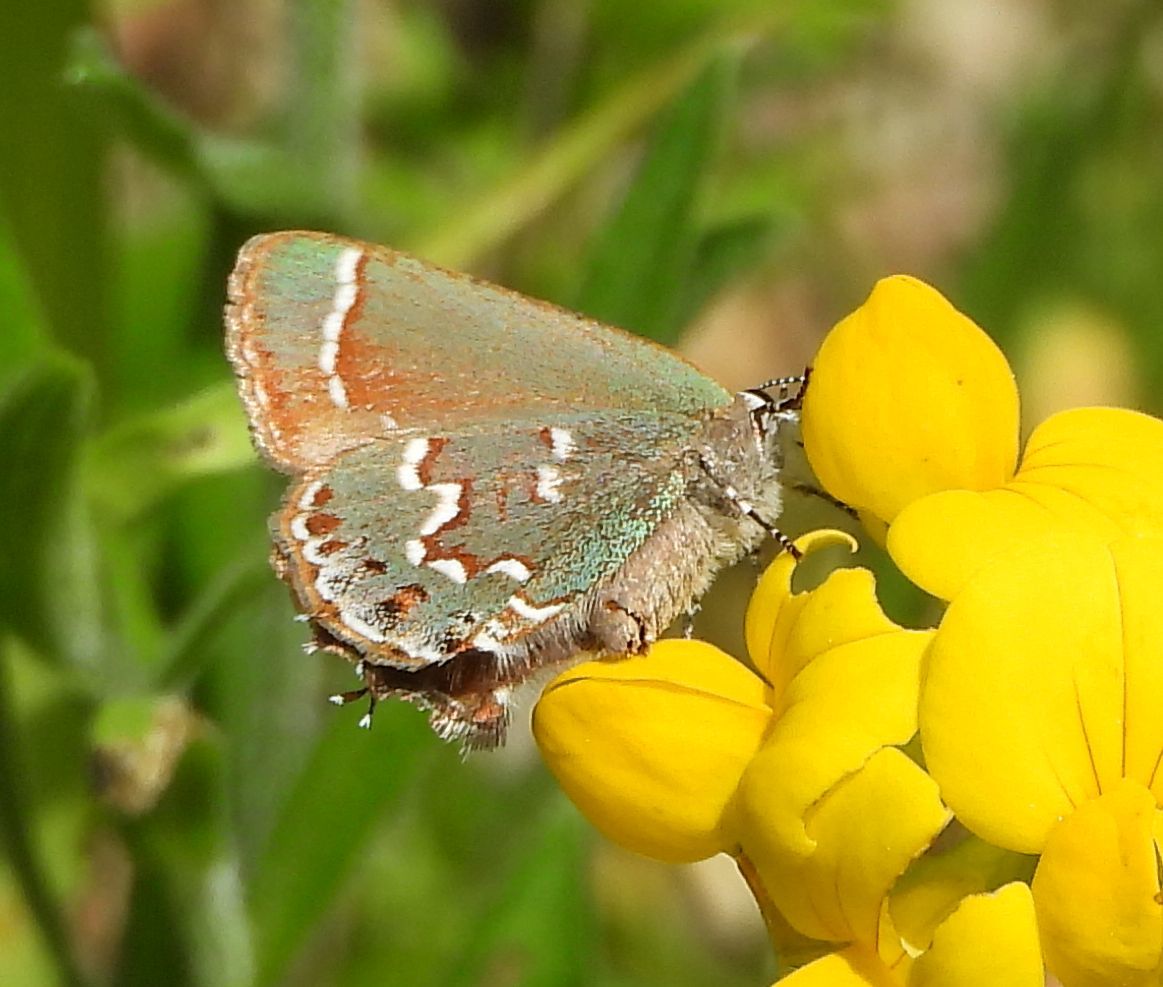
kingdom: Animalia
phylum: Arthropoda
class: Insecta
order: Lepidoptera
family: Lycaenidae
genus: Mitoura
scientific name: Mitoura gryneus
